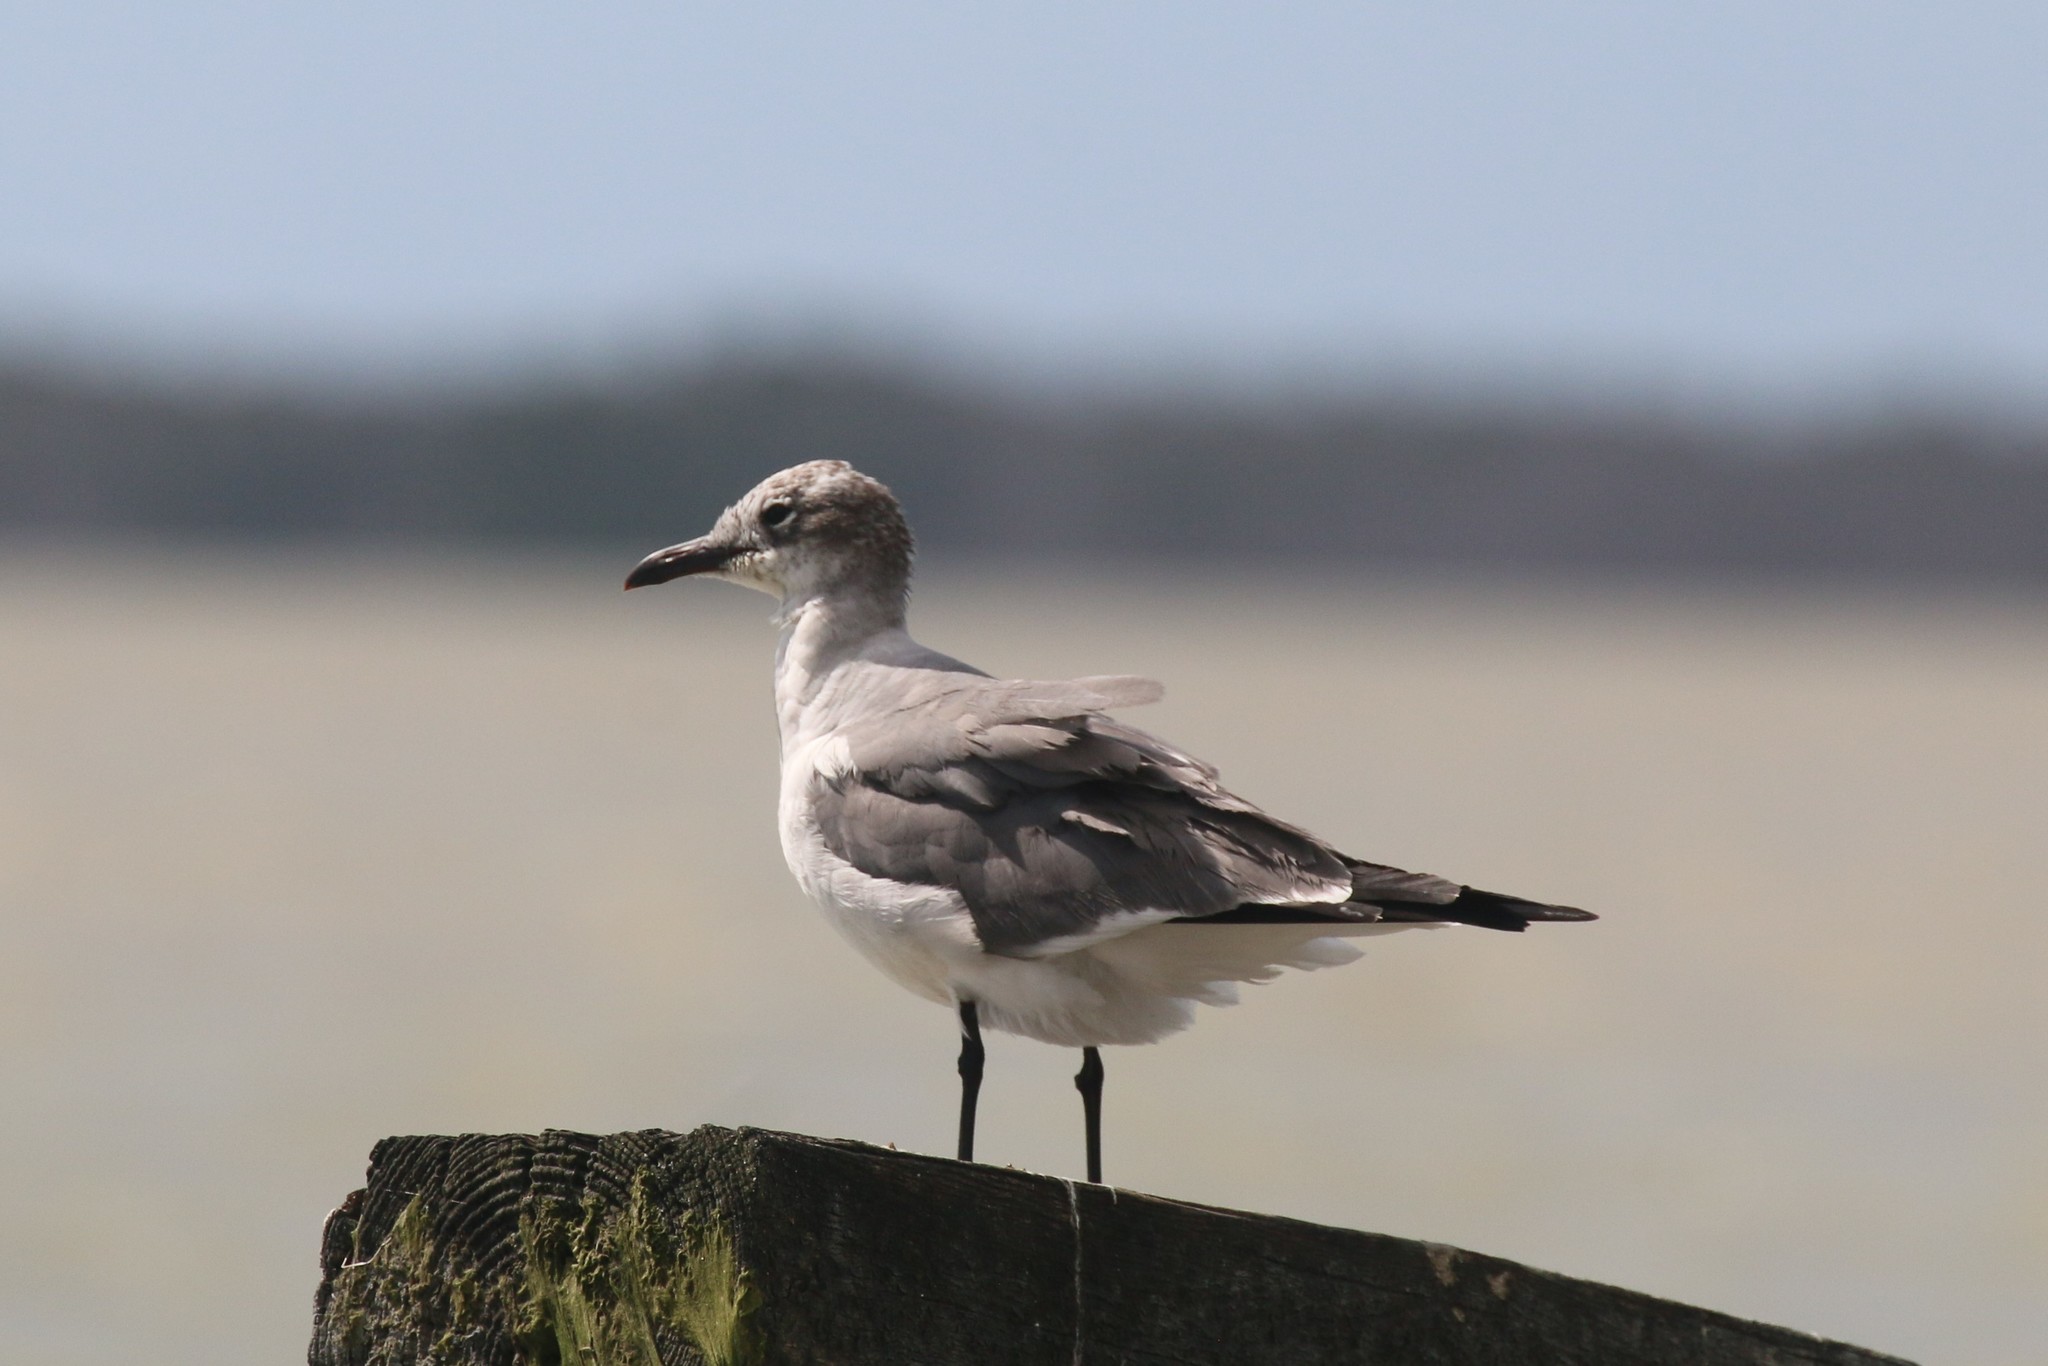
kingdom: Animalia
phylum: Chordata
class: Aves
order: Charadriiformes
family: Laridae
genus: Leucophaeus
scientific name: Leucophaeus atricilla
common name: Laughing gull
